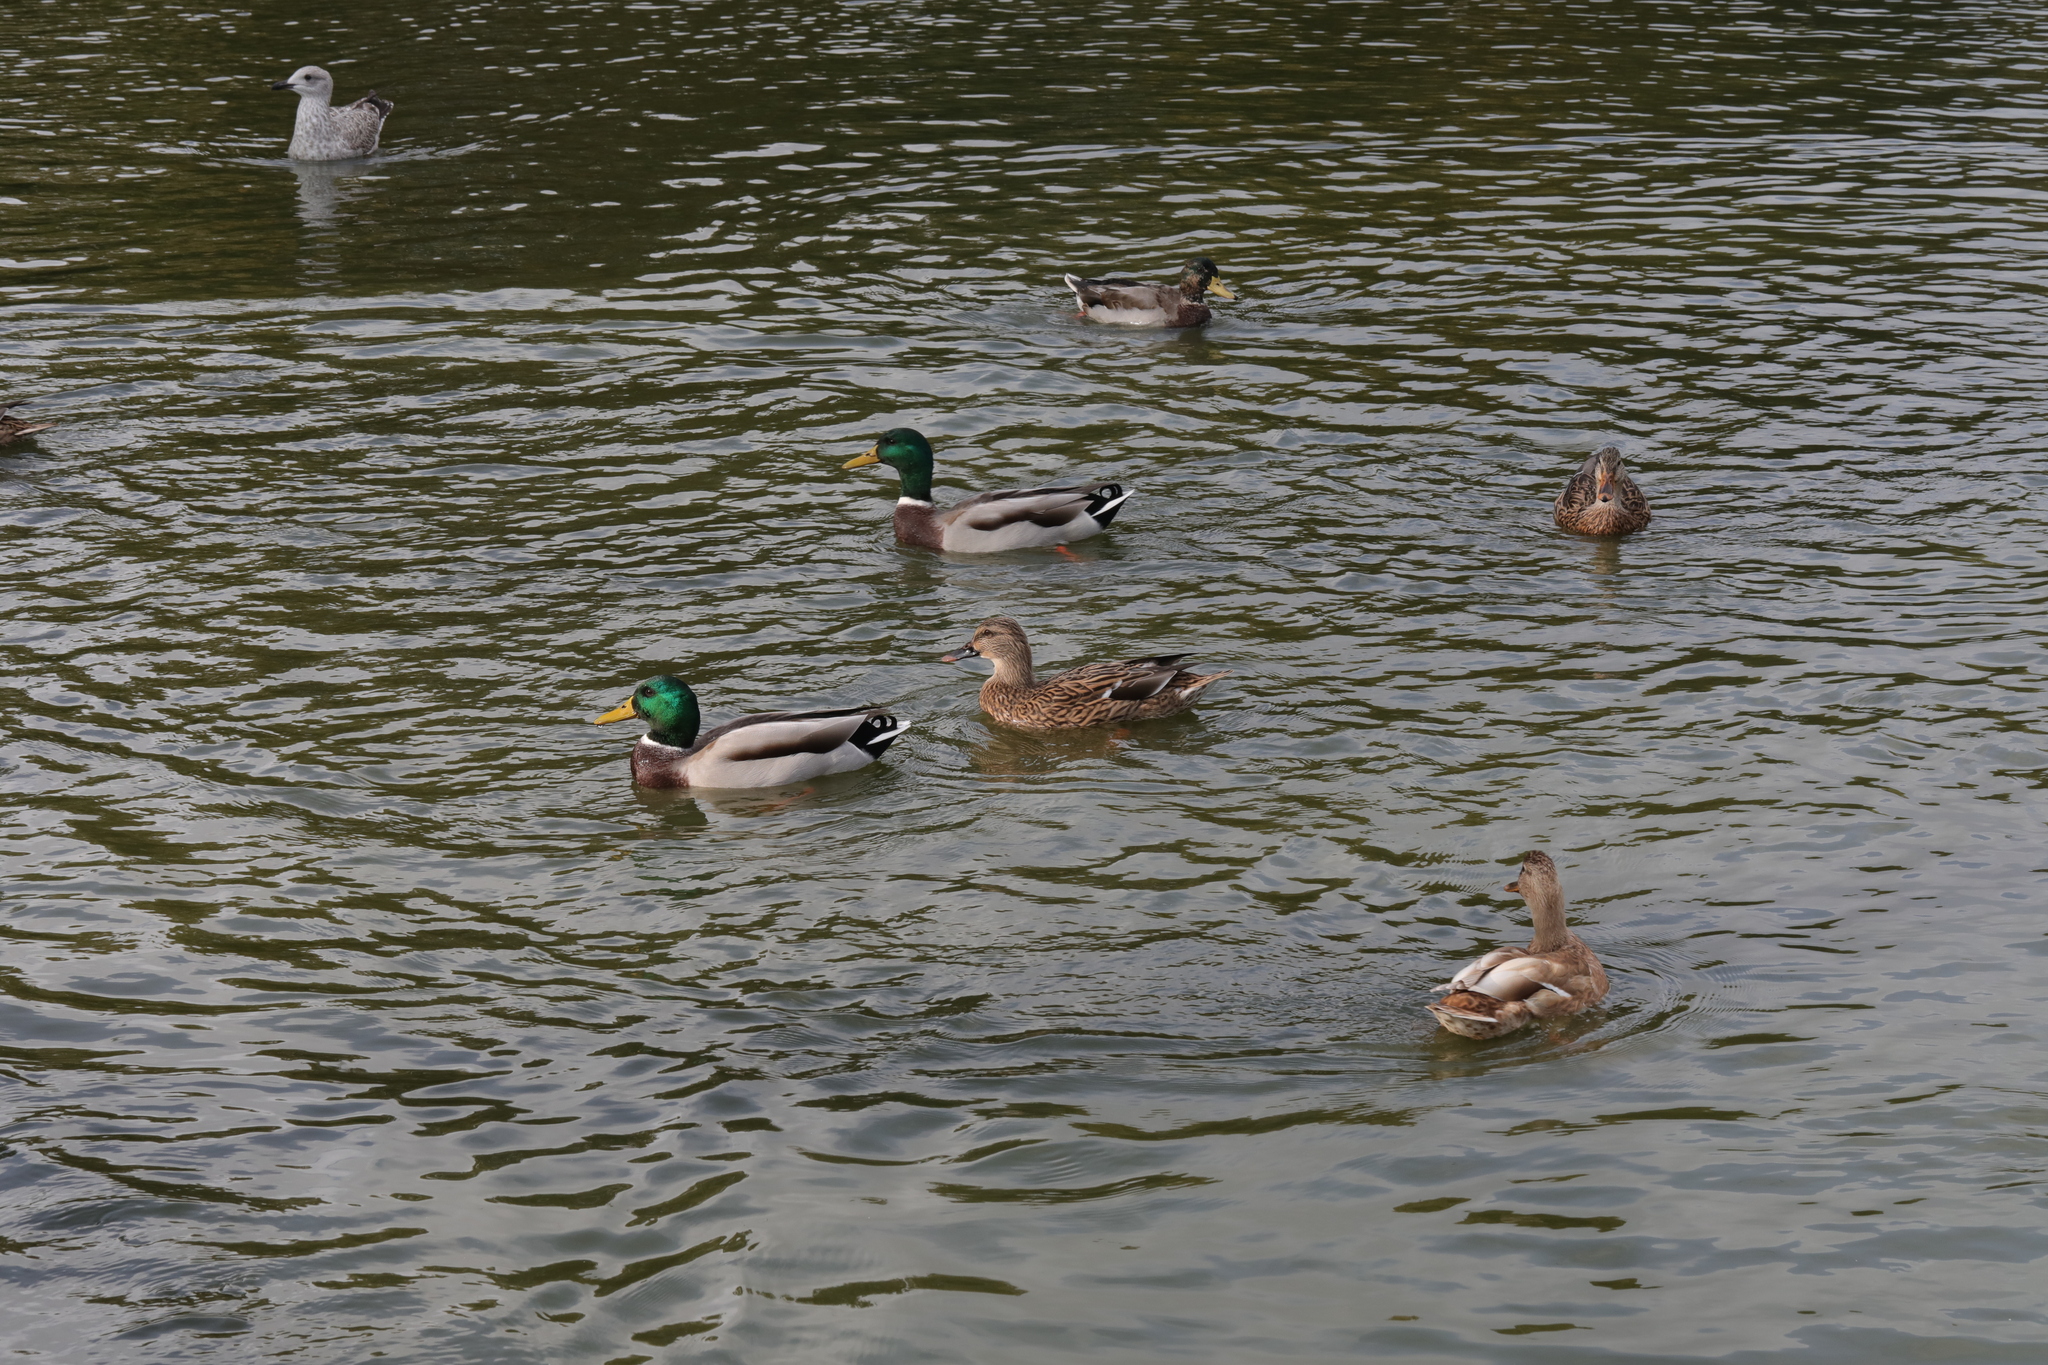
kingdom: Animalia
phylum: Chordata
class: Aves
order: Anseriformes
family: Anatidae
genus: Anas
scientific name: Anas platyrhynchos
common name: Mallard
